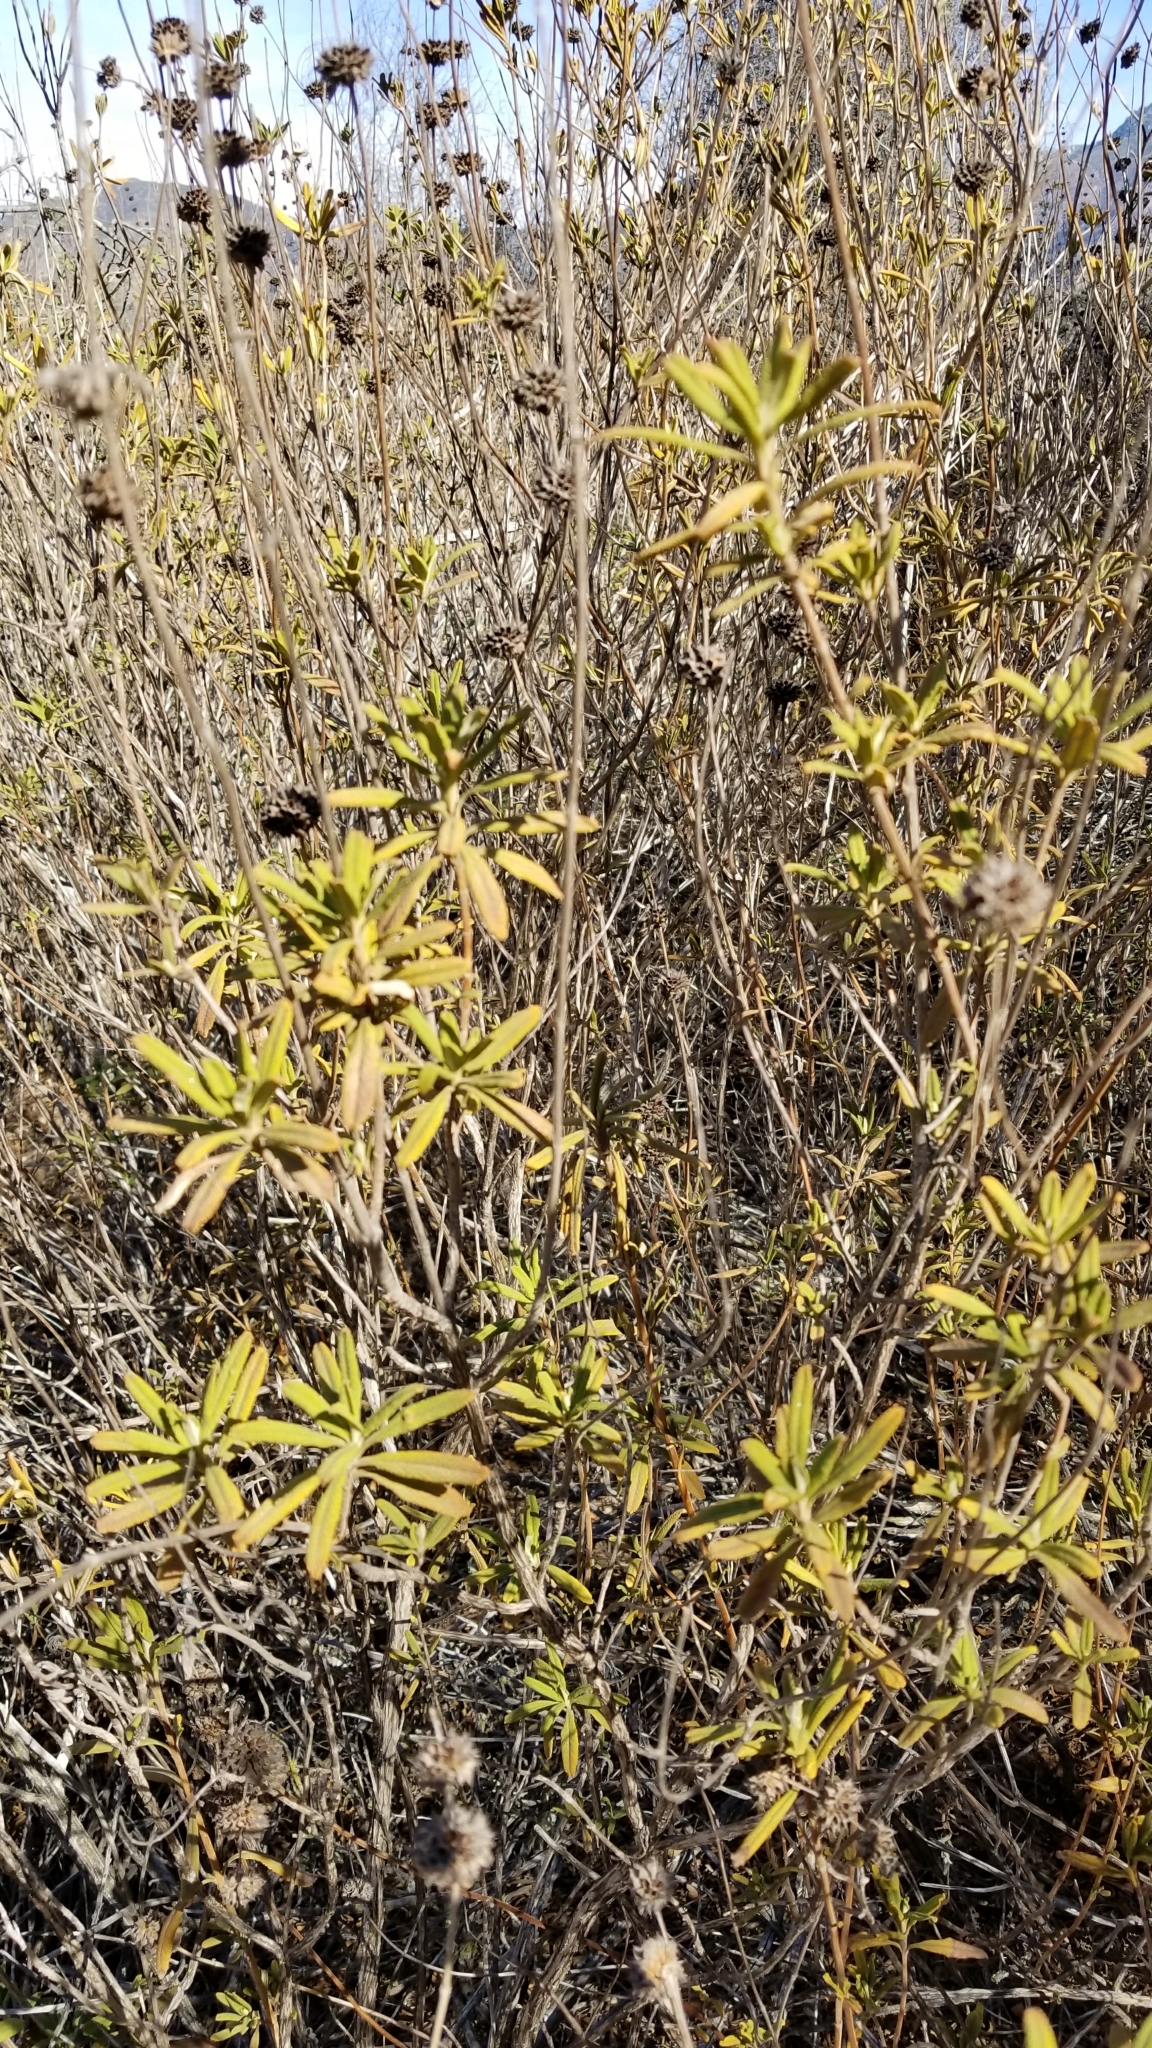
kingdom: Plantae
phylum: Tracheophyta
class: Magnoliopsida
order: Lamiales
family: Lamiaceae
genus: Salvia
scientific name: Salvia mellifera
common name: Black sage
